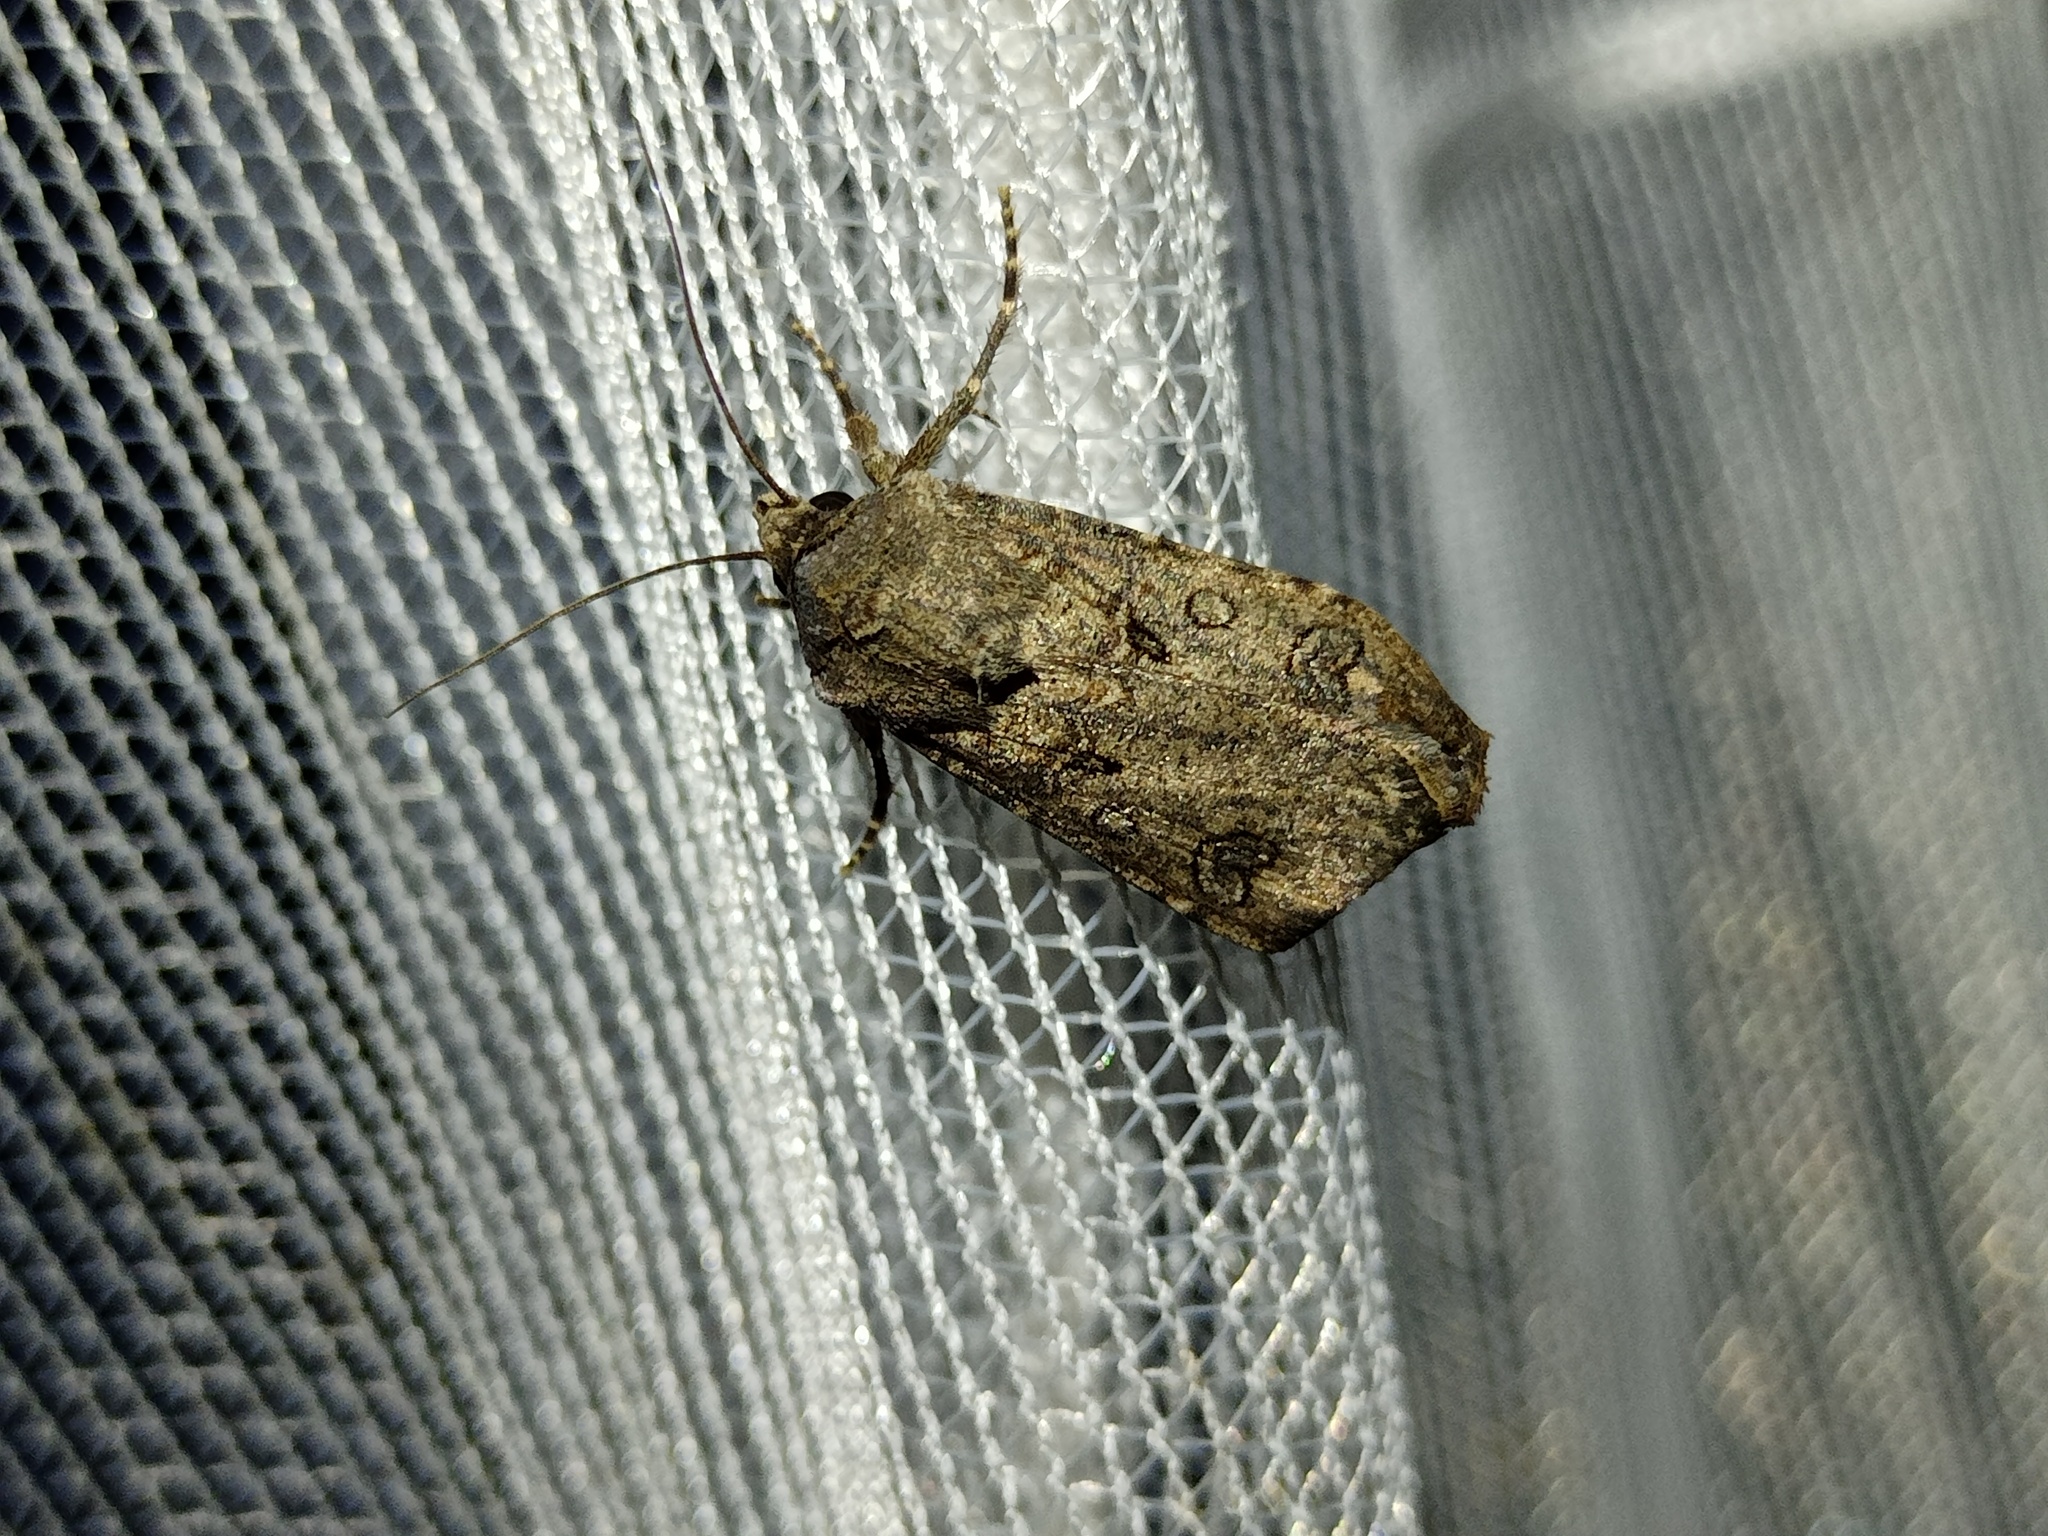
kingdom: Animalia
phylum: Arthropoda
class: Insecta
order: Lepidoptera
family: Noctuidae
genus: Agrotis
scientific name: Agrotis segetum
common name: Turnip moth
